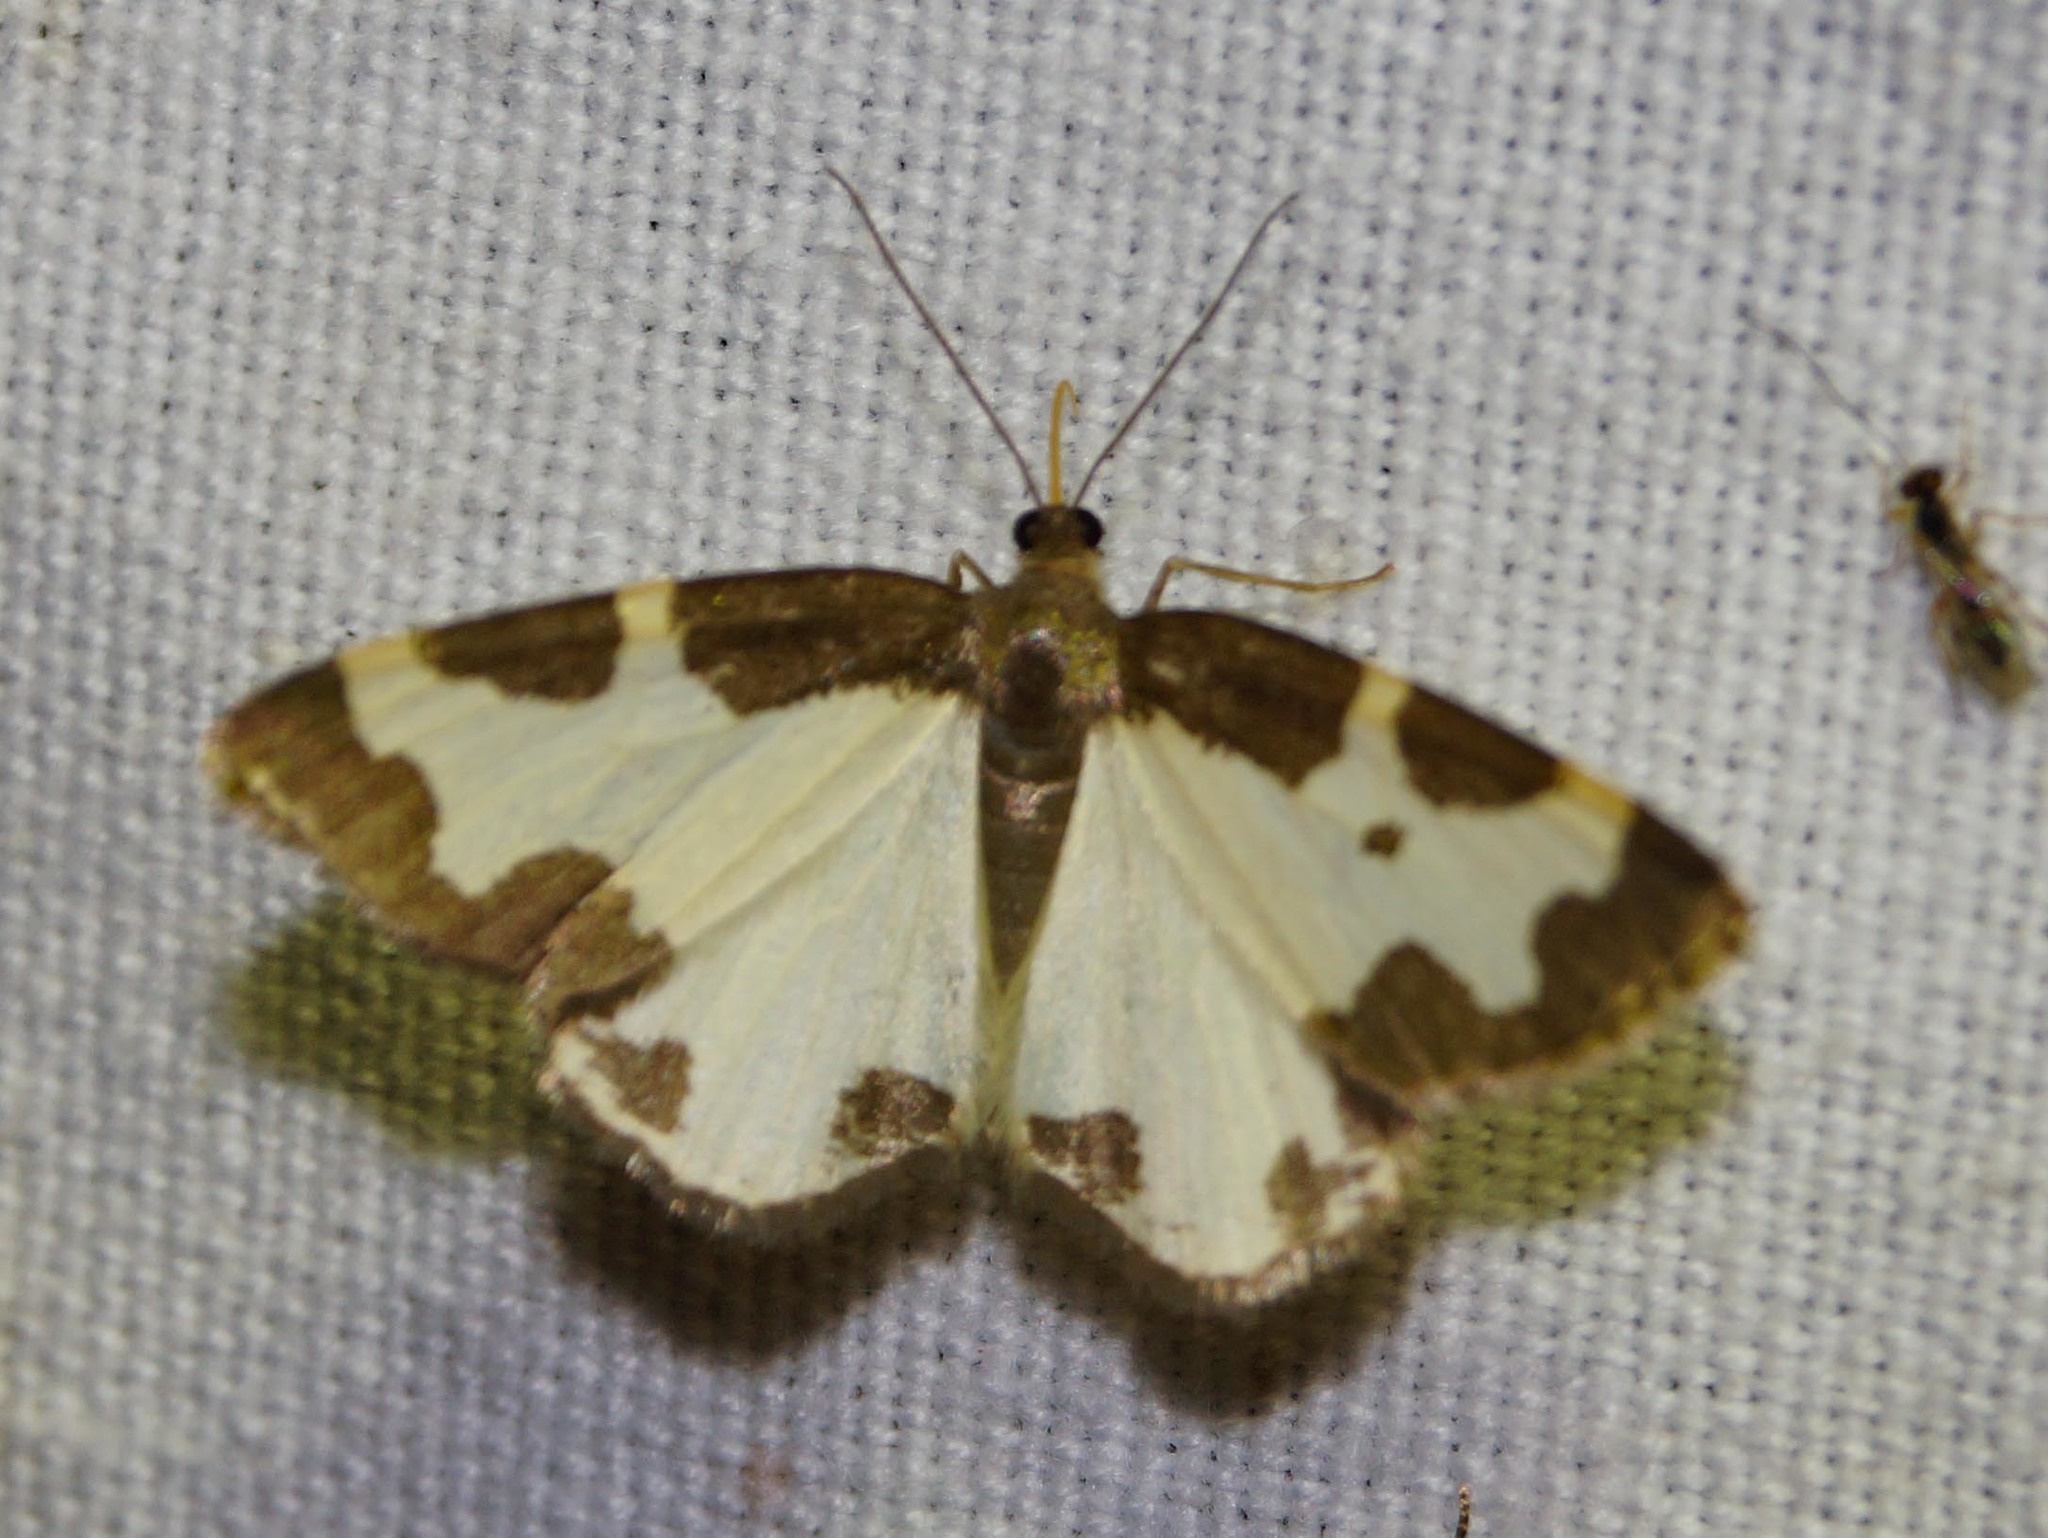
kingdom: Animalia
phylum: Arthropoda
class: Insecta
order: Lepidoptera
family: Geometridae
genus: Lomaspilis
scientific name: Lomaspilis marginata
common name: Clouded border
